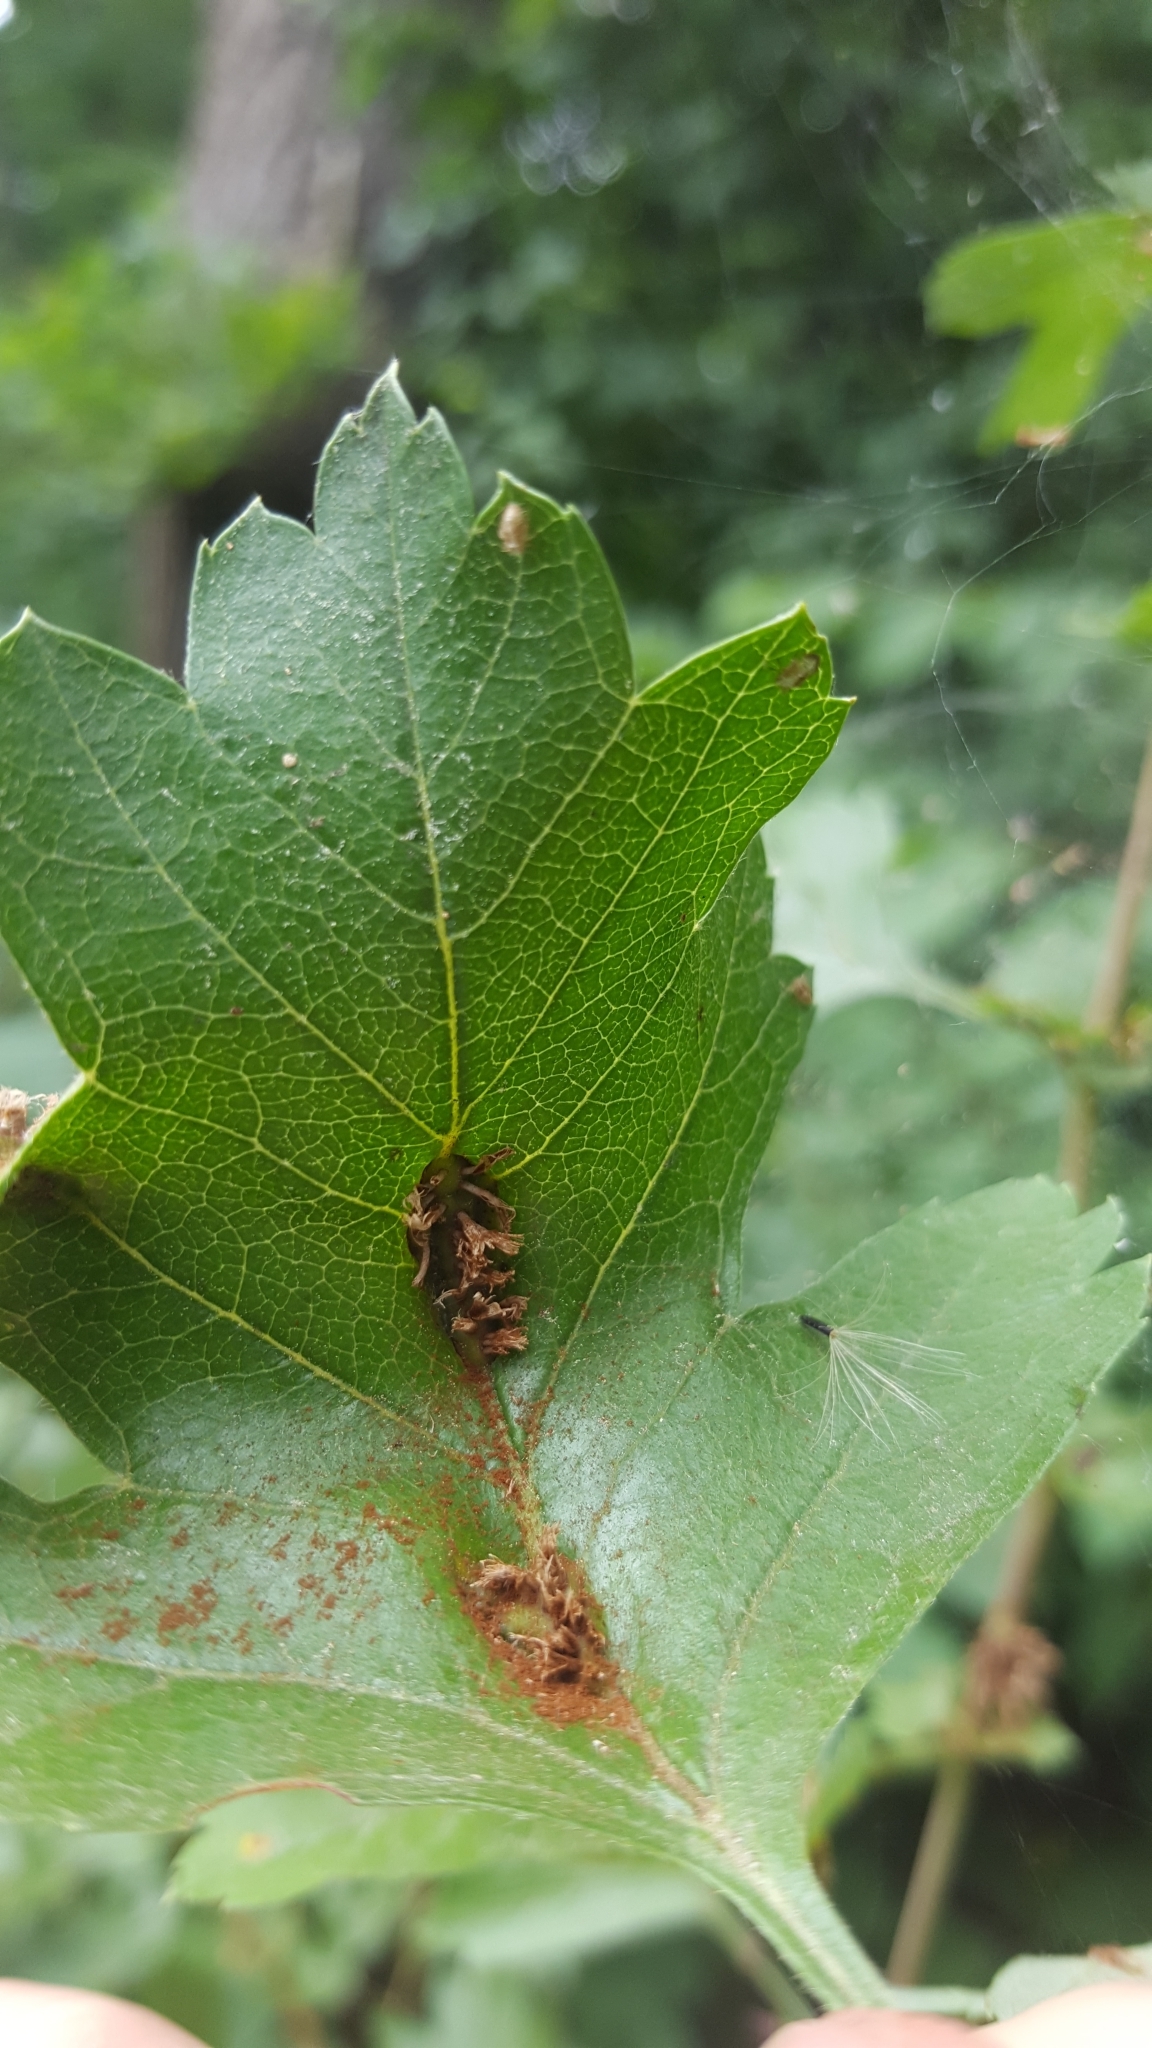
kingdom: Fungi
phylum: Basidiomycota
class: Pucciniomycetes
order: Pucciniales
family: Gymnosporangiaceae
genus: Gymnosporangium
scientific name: Gymnosporangium clavariiforme
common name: Tongues of fire
